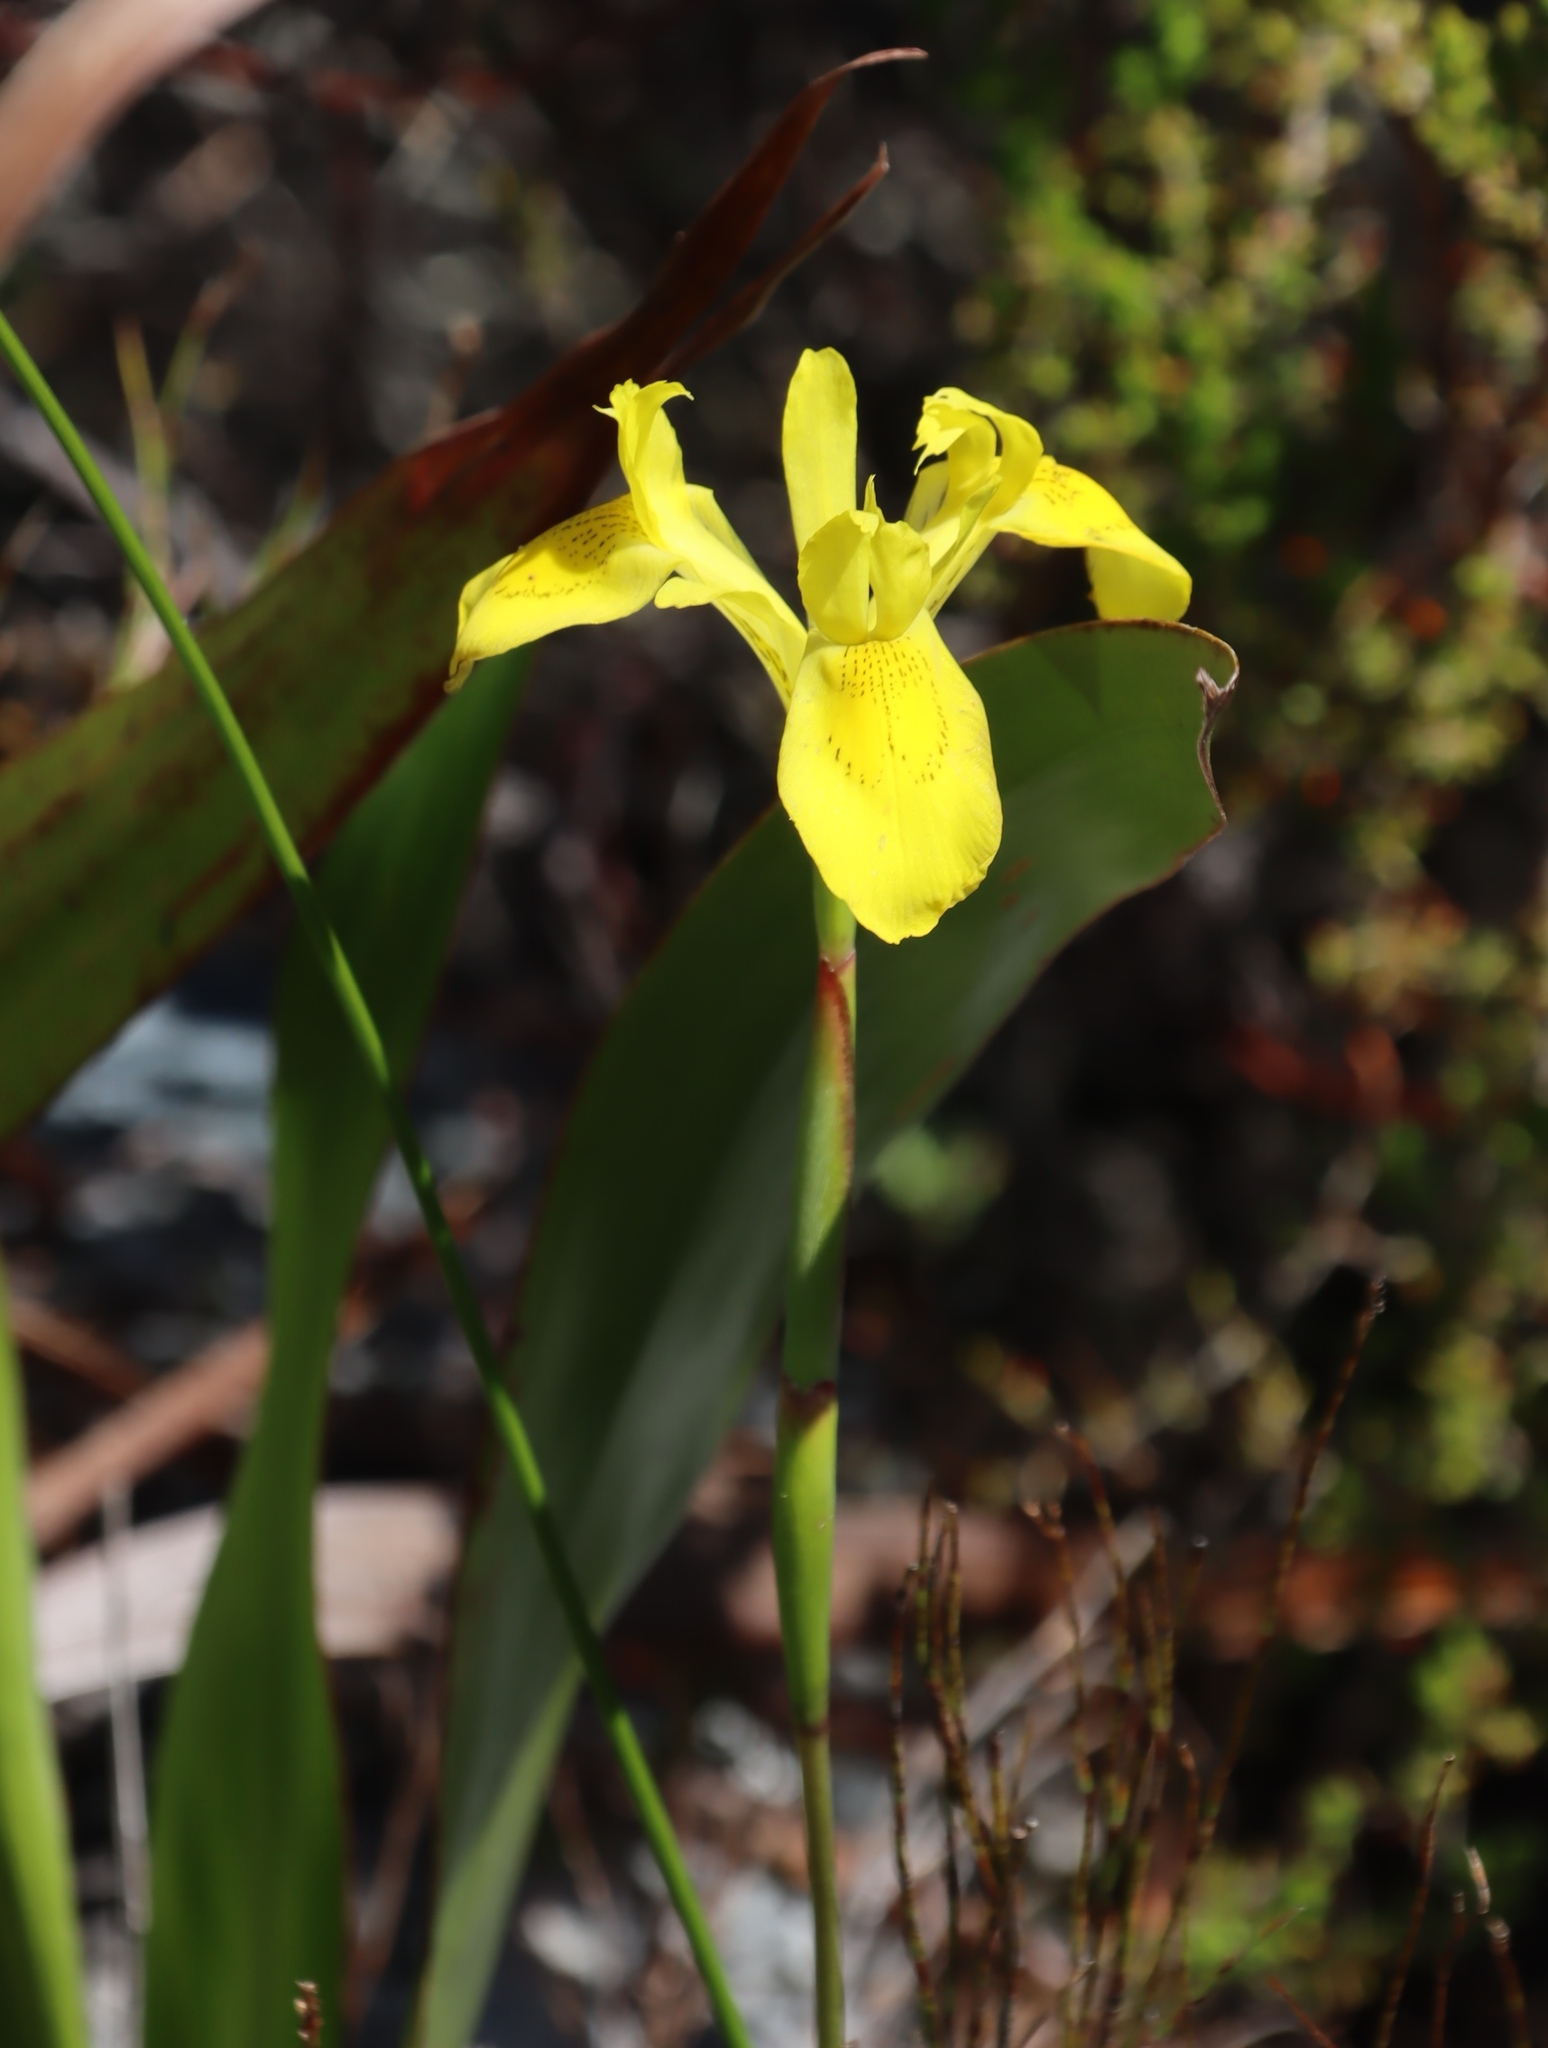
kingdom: Plantae
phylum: Tracheophyta
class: Liliopsida
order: Asparagales
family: Iridaceae
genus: Moraea
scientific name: Moraea neglecta
